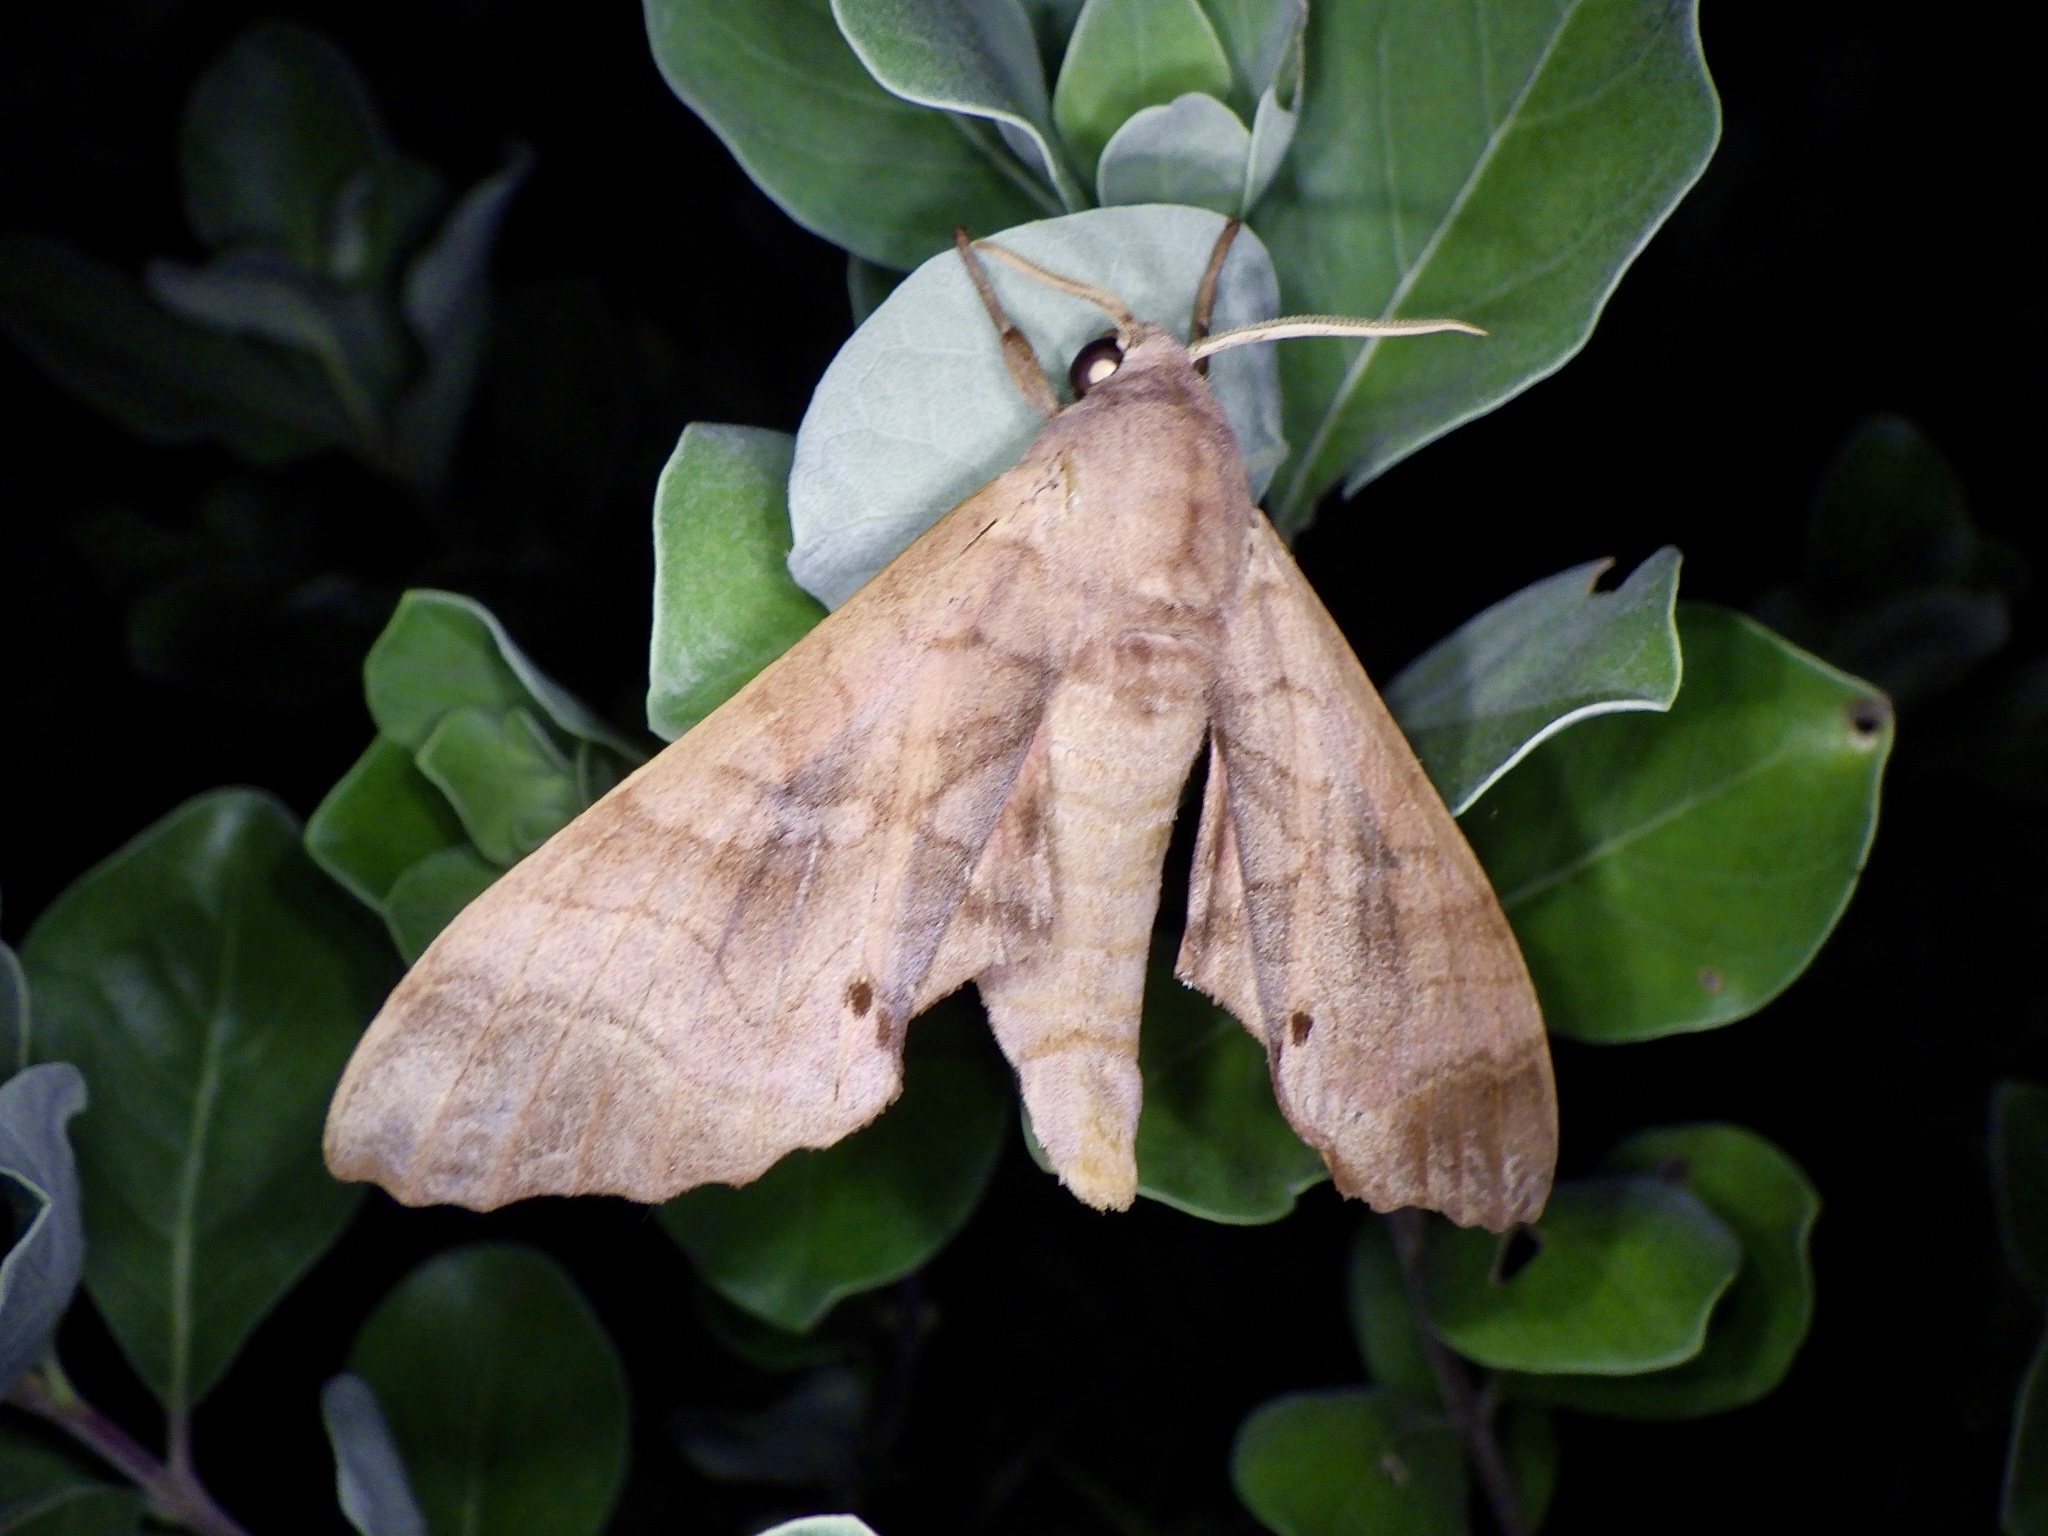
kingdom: Animalia
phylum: Arthropoda
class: Insecta
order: Lepidoptera
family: Sphingidae
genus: Marumba
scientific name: Marumba echephron
